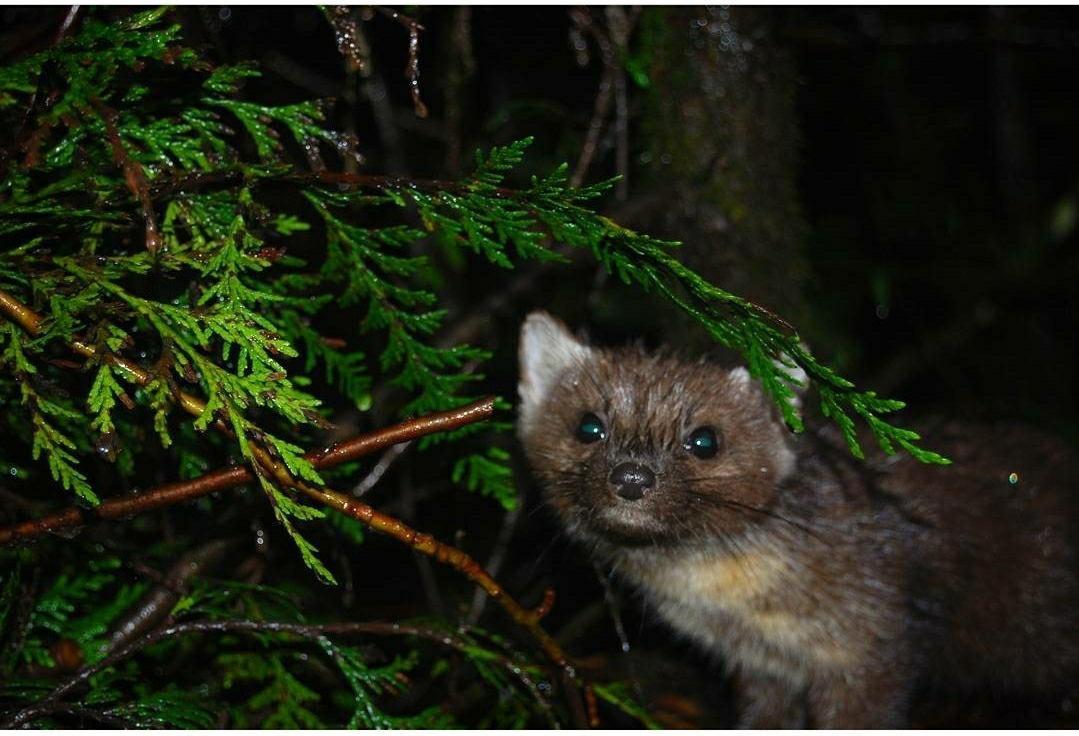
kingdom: Animalia
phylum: Chordata
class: Mammalia
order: Carnivora
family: Mustelidae
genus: Martes
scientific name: Martes caurina
